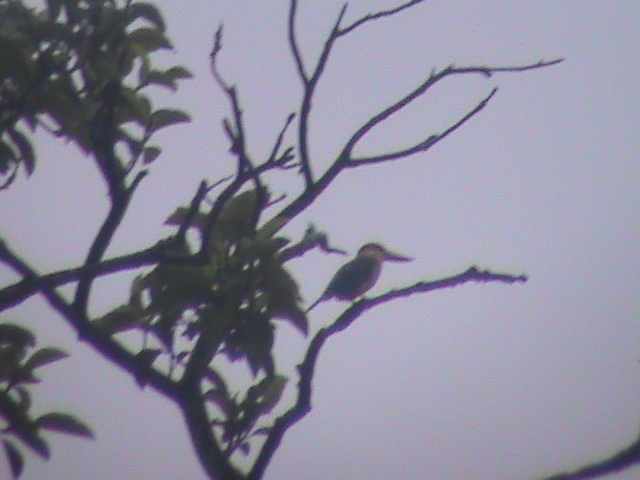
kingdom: Animalia
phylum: Chordata
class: Aves
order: Coraciiformes
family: Alcedinidae
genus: Pelargopsis
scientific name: Pelargopsis capensis
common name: Stork-billed kingfisher
